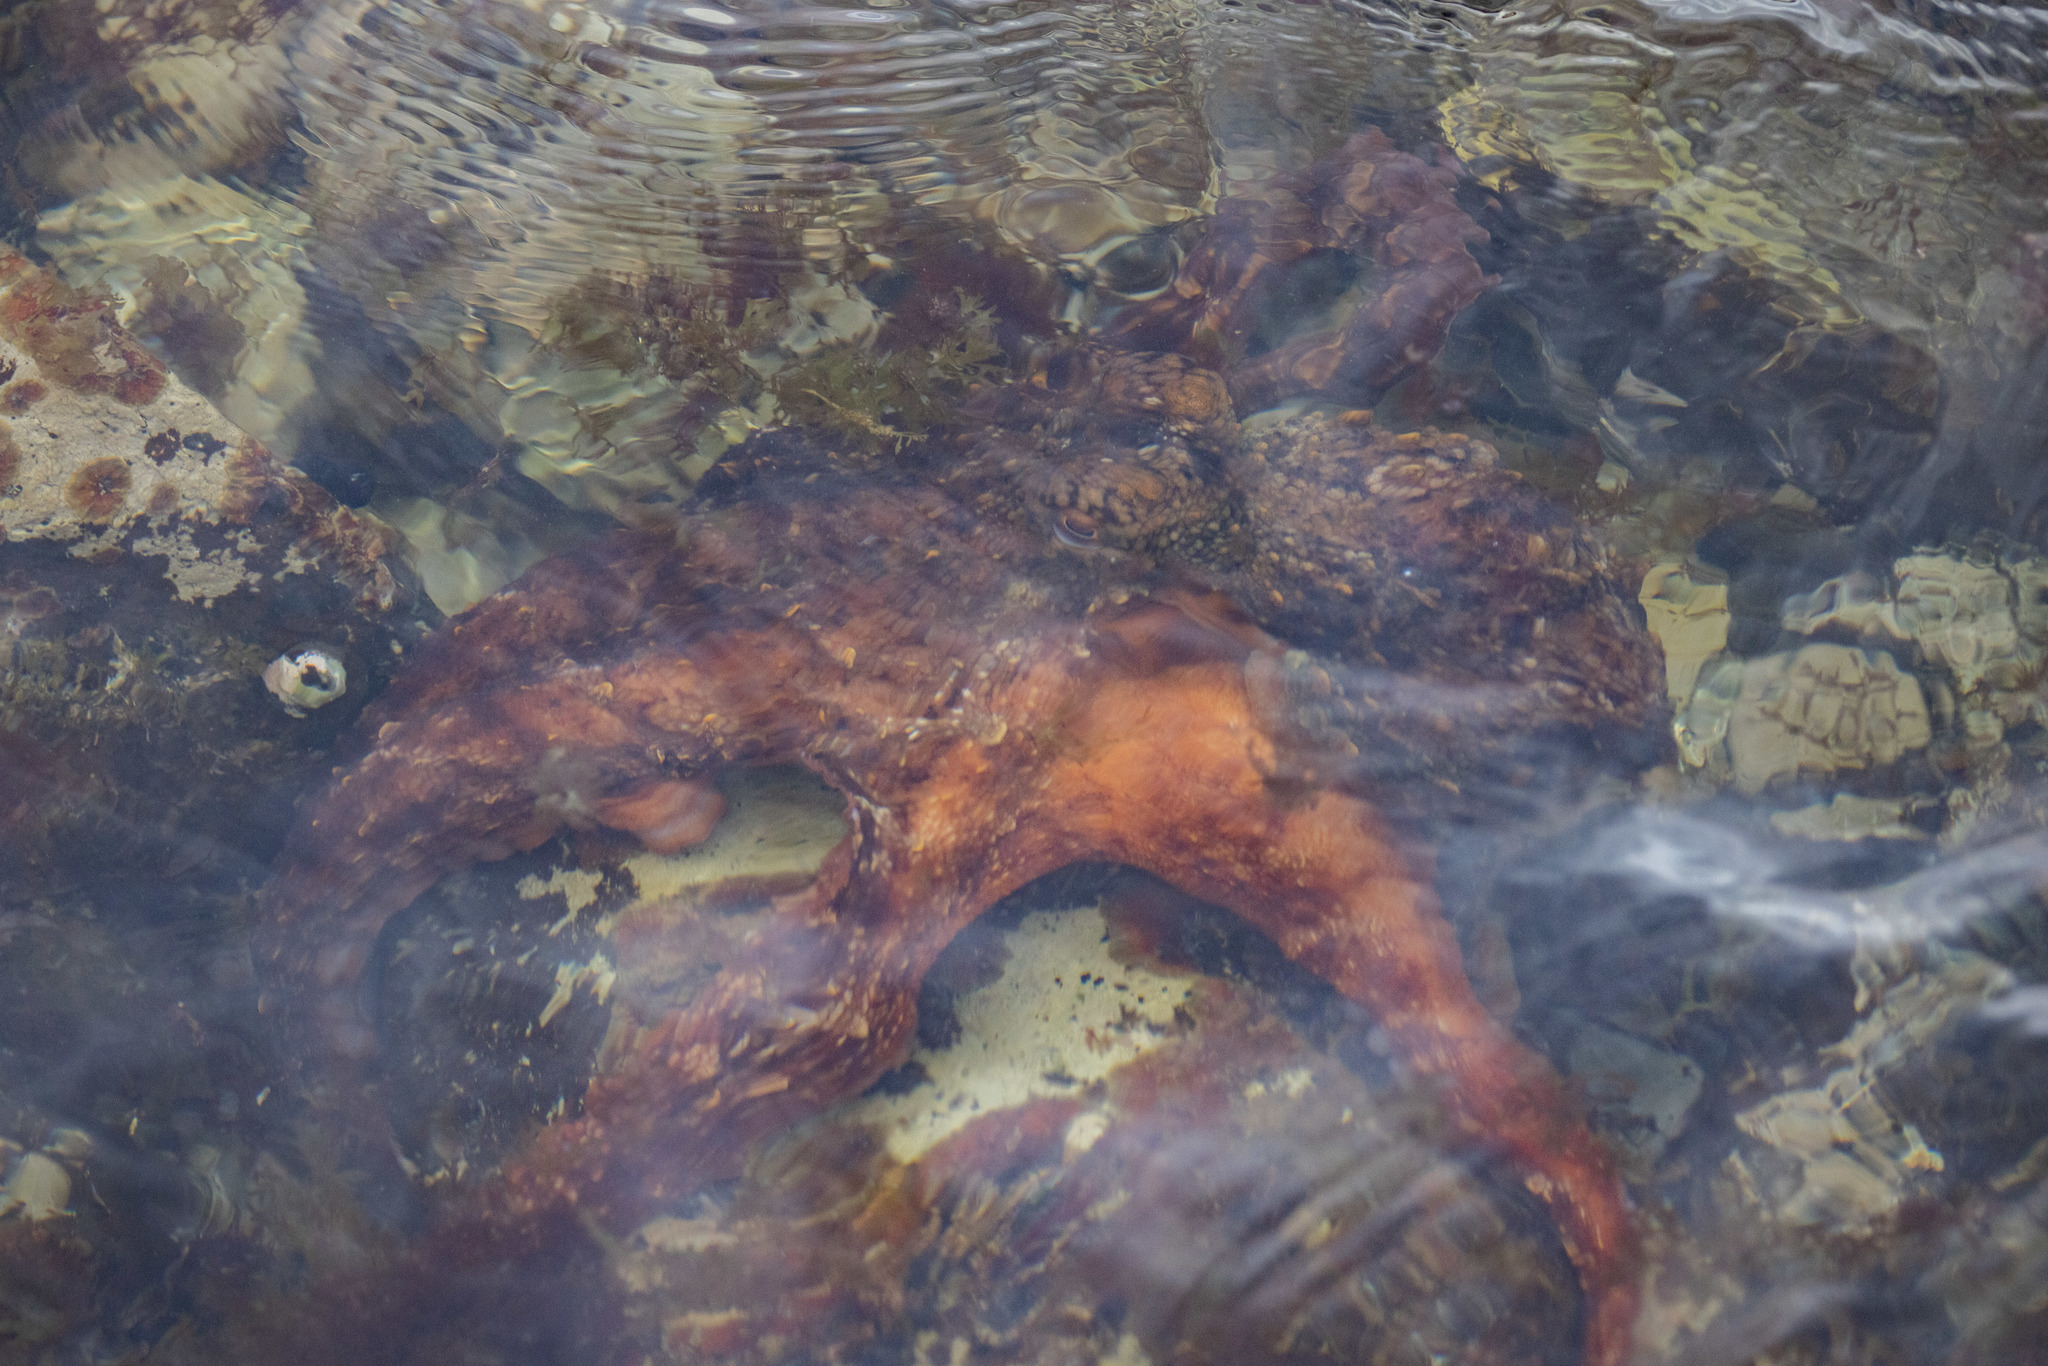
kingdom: Animalia
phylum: Mollusca
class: Cephalopoda
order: Octopoda
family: Octopodidae
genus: Octopus
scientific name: Octopus tetricus
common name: Sydney octopus
